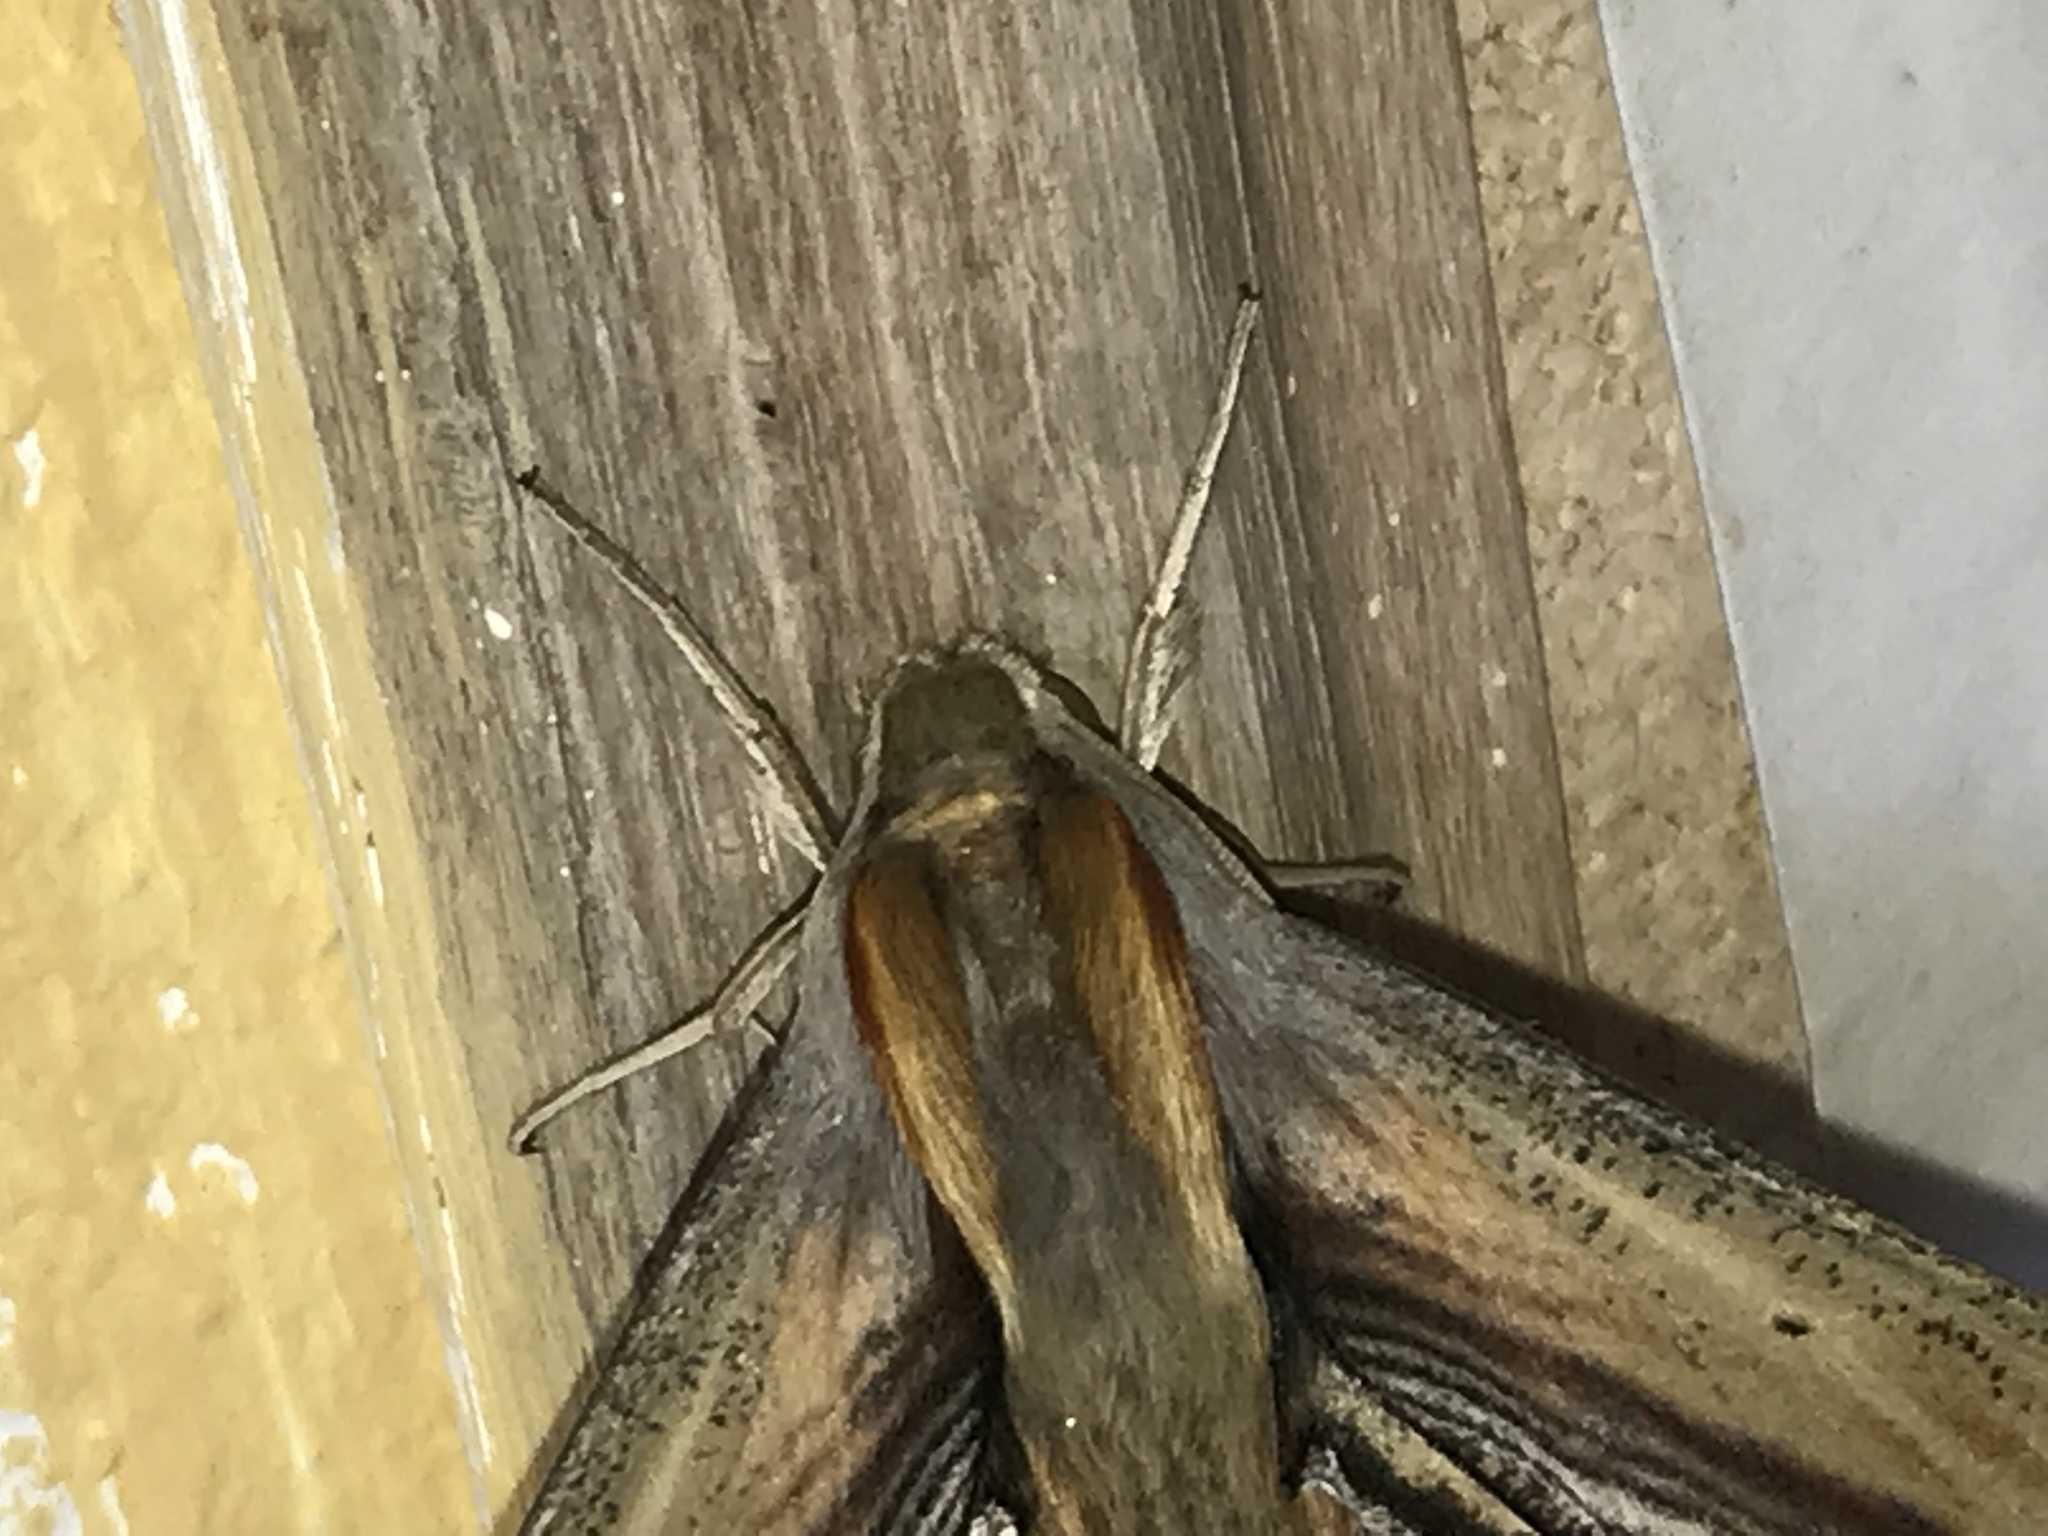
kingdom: Animalia
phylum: Arthropoda
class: Insecta
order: Lepidoptera
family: Sphingidae
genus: Xylophanes
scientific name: Xylophanes falco
